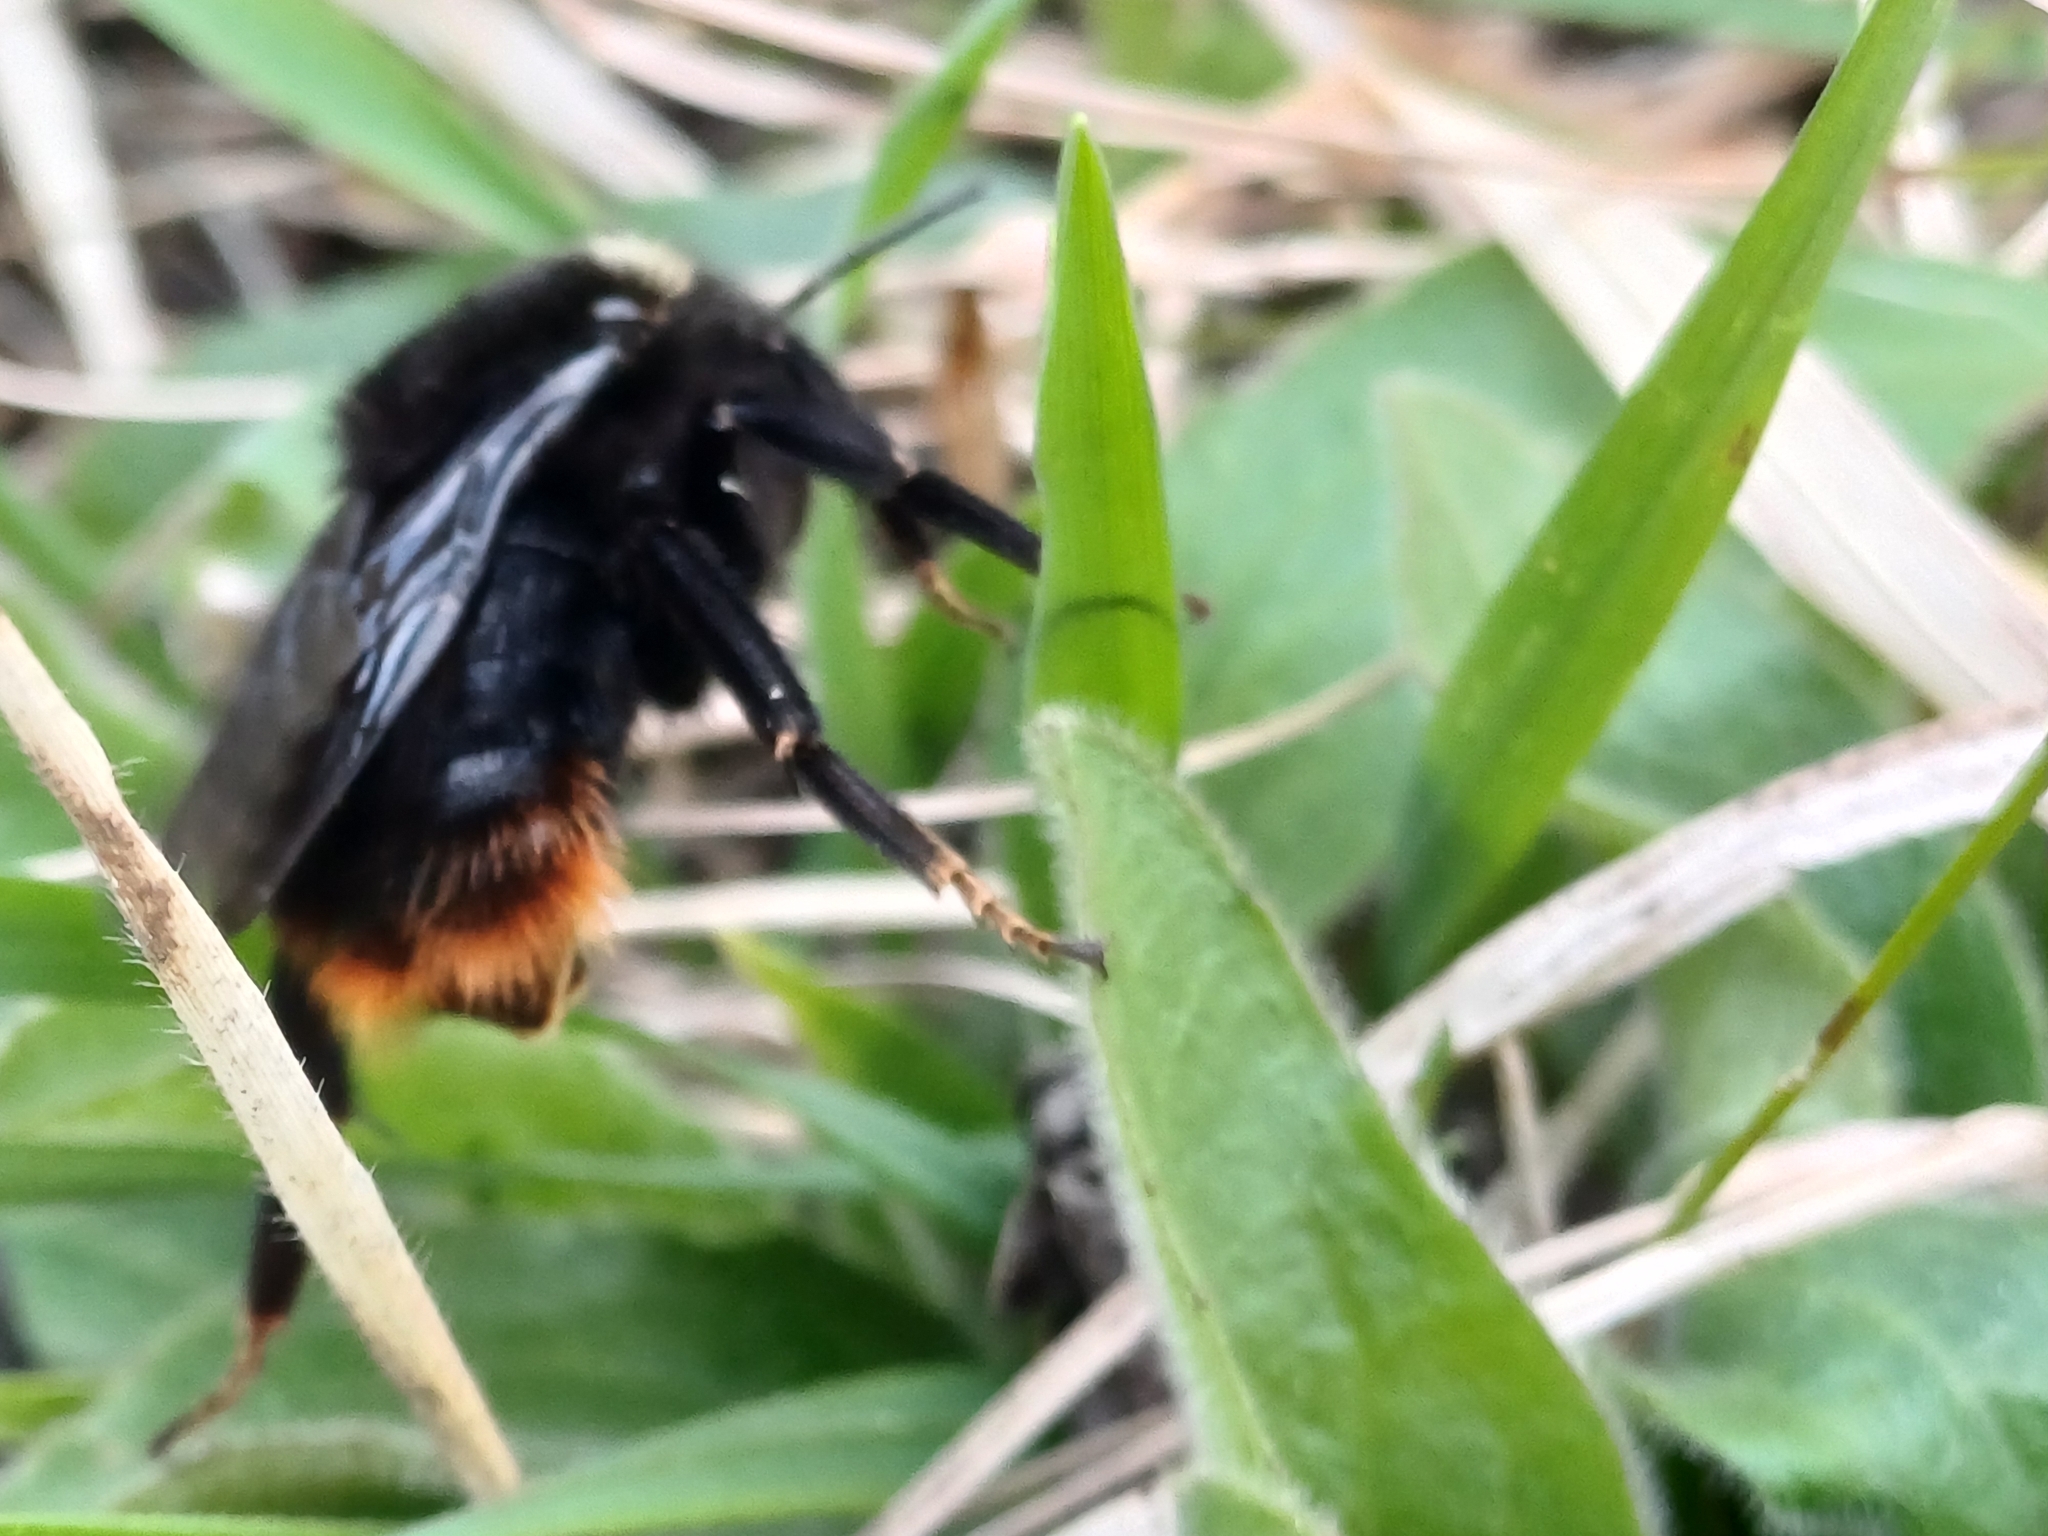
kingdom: Animalia
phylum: Arthropoda
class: Insecta
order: Hymenoptera
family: Apidae
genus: Bombus
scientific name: Bombus rupestris
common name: Hill cuckoo-bee
